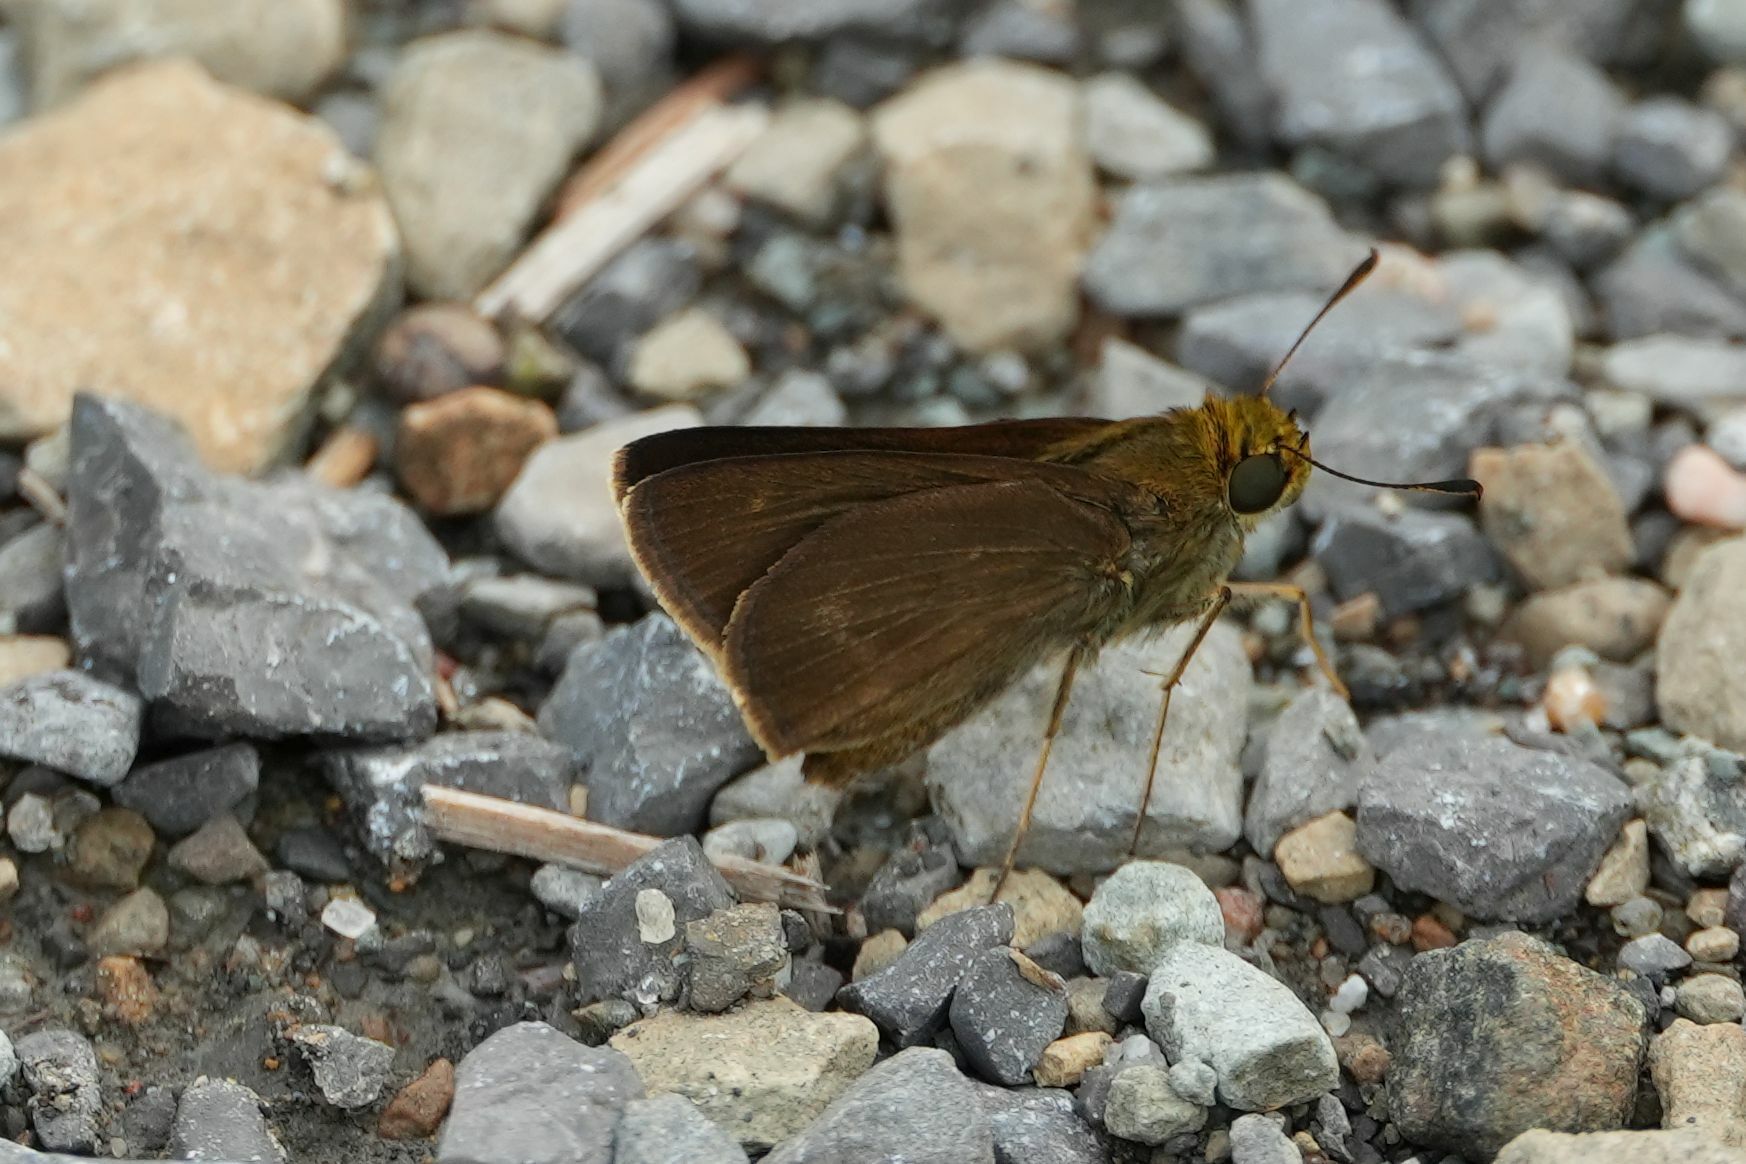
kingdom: Animalia
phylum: Arthropoda
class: Insecta
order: Lepidoptera
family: Hesperiidae
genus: Euphyes
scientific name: Euphyes vestris
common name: Dun skipper
